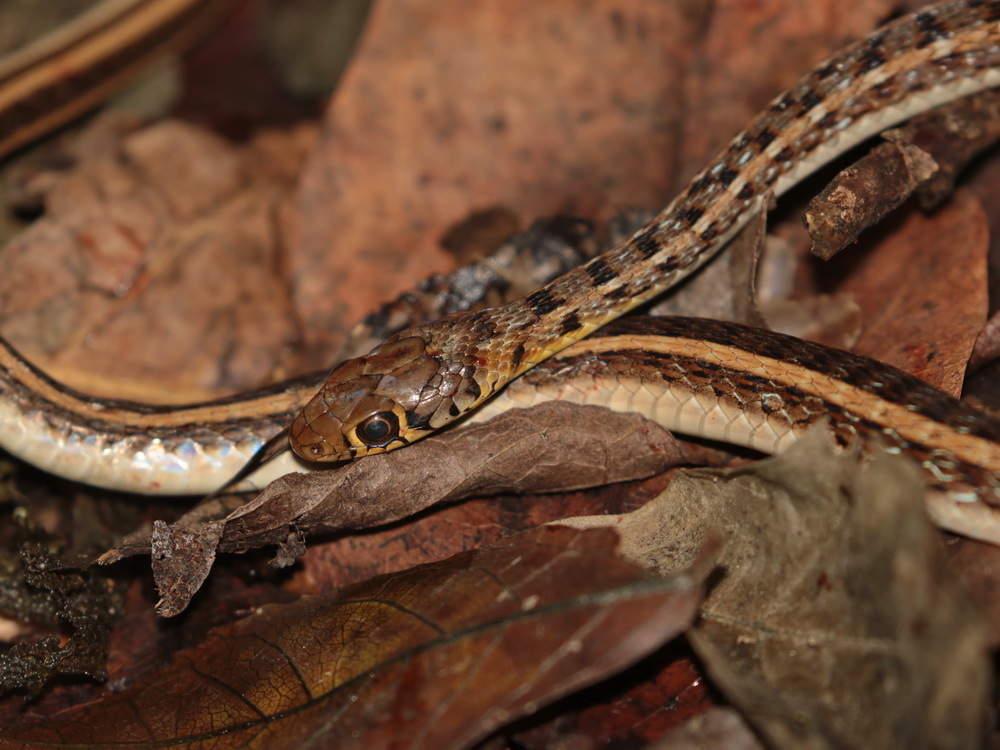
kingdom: Animalia
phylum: Chordata
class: Squamata
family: Colubridae
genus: Amphiesma
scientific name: Amphiesma stolatum
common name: Buff striped keelback
